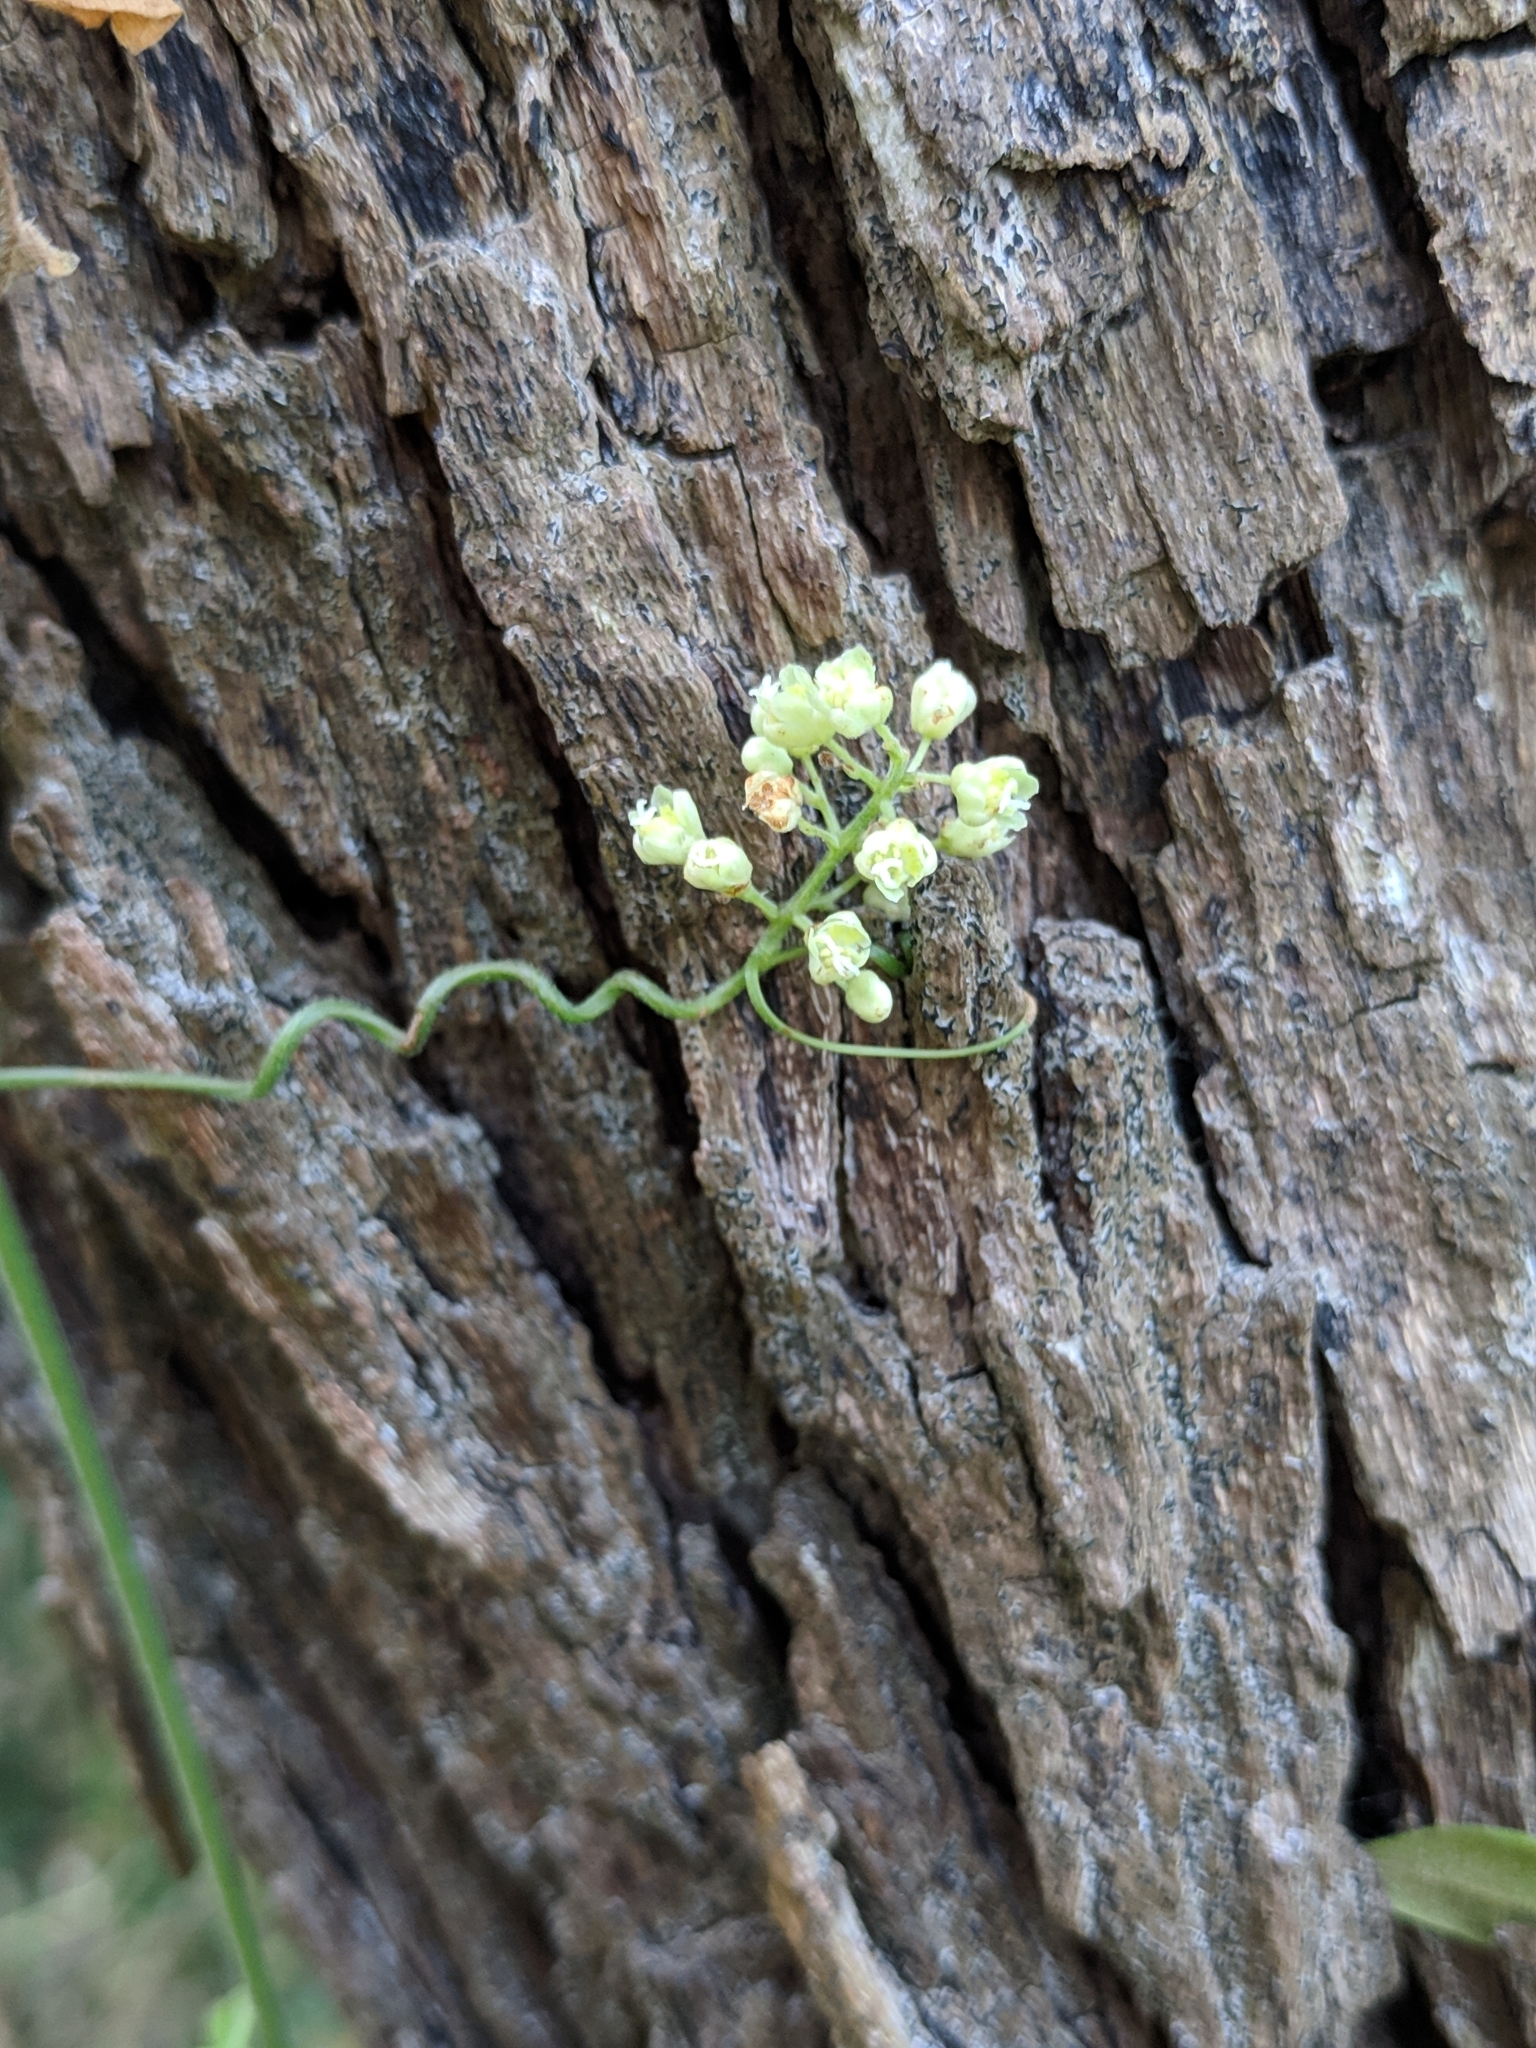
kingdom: Plantae
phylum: Tracheophyta
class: Magnoliopsida
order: Sapindales
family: Sapindaceae
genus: Serjania
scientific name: Serjania brachycarpa
